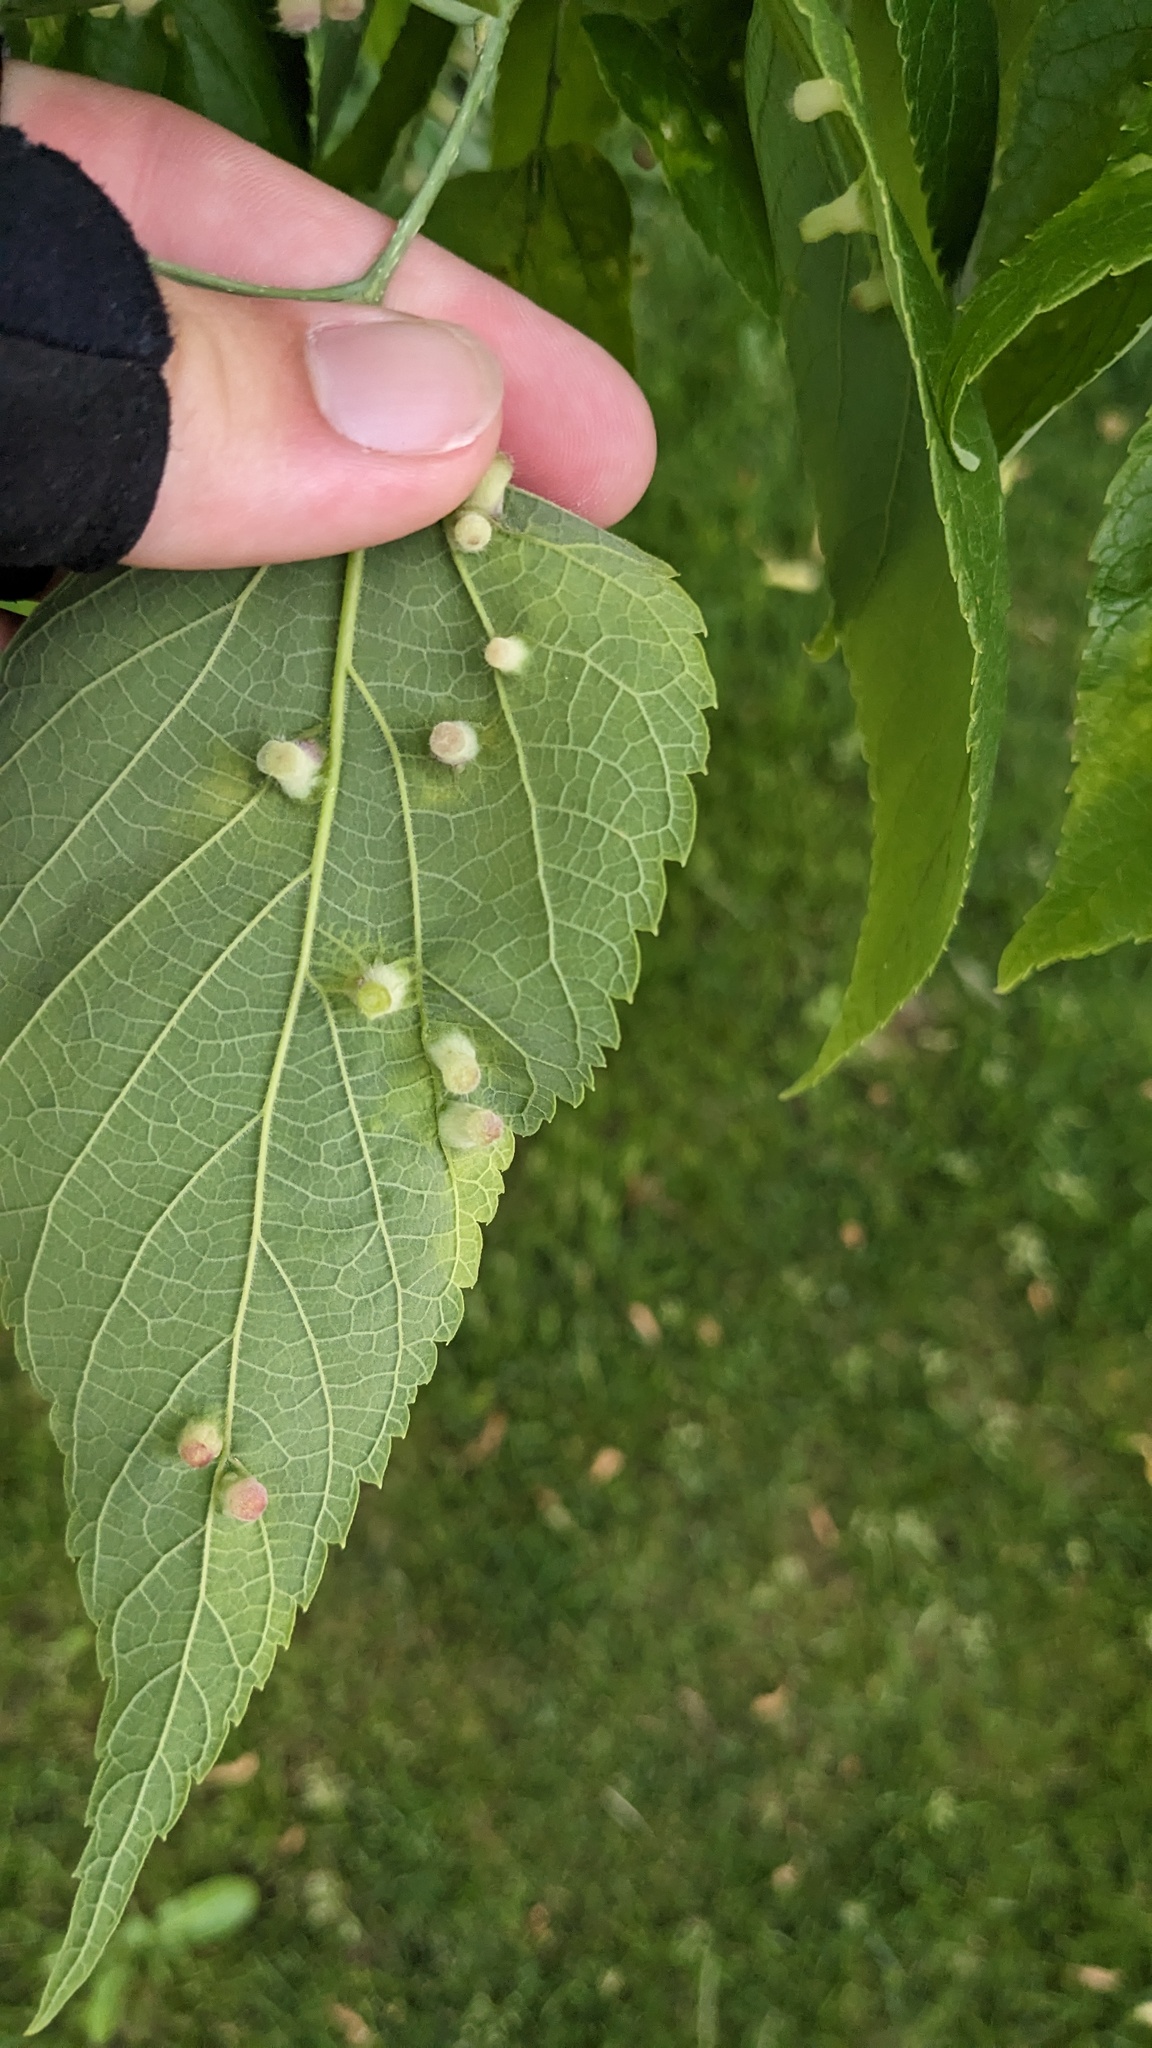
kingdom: Animalia
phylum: Arthropoda
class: Insecta
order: Hemiptera
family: Aphalaridae
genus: Pachypsylla
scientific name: Pachypsylla celtidismamma
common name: Hackberry nipplegall psyllid
